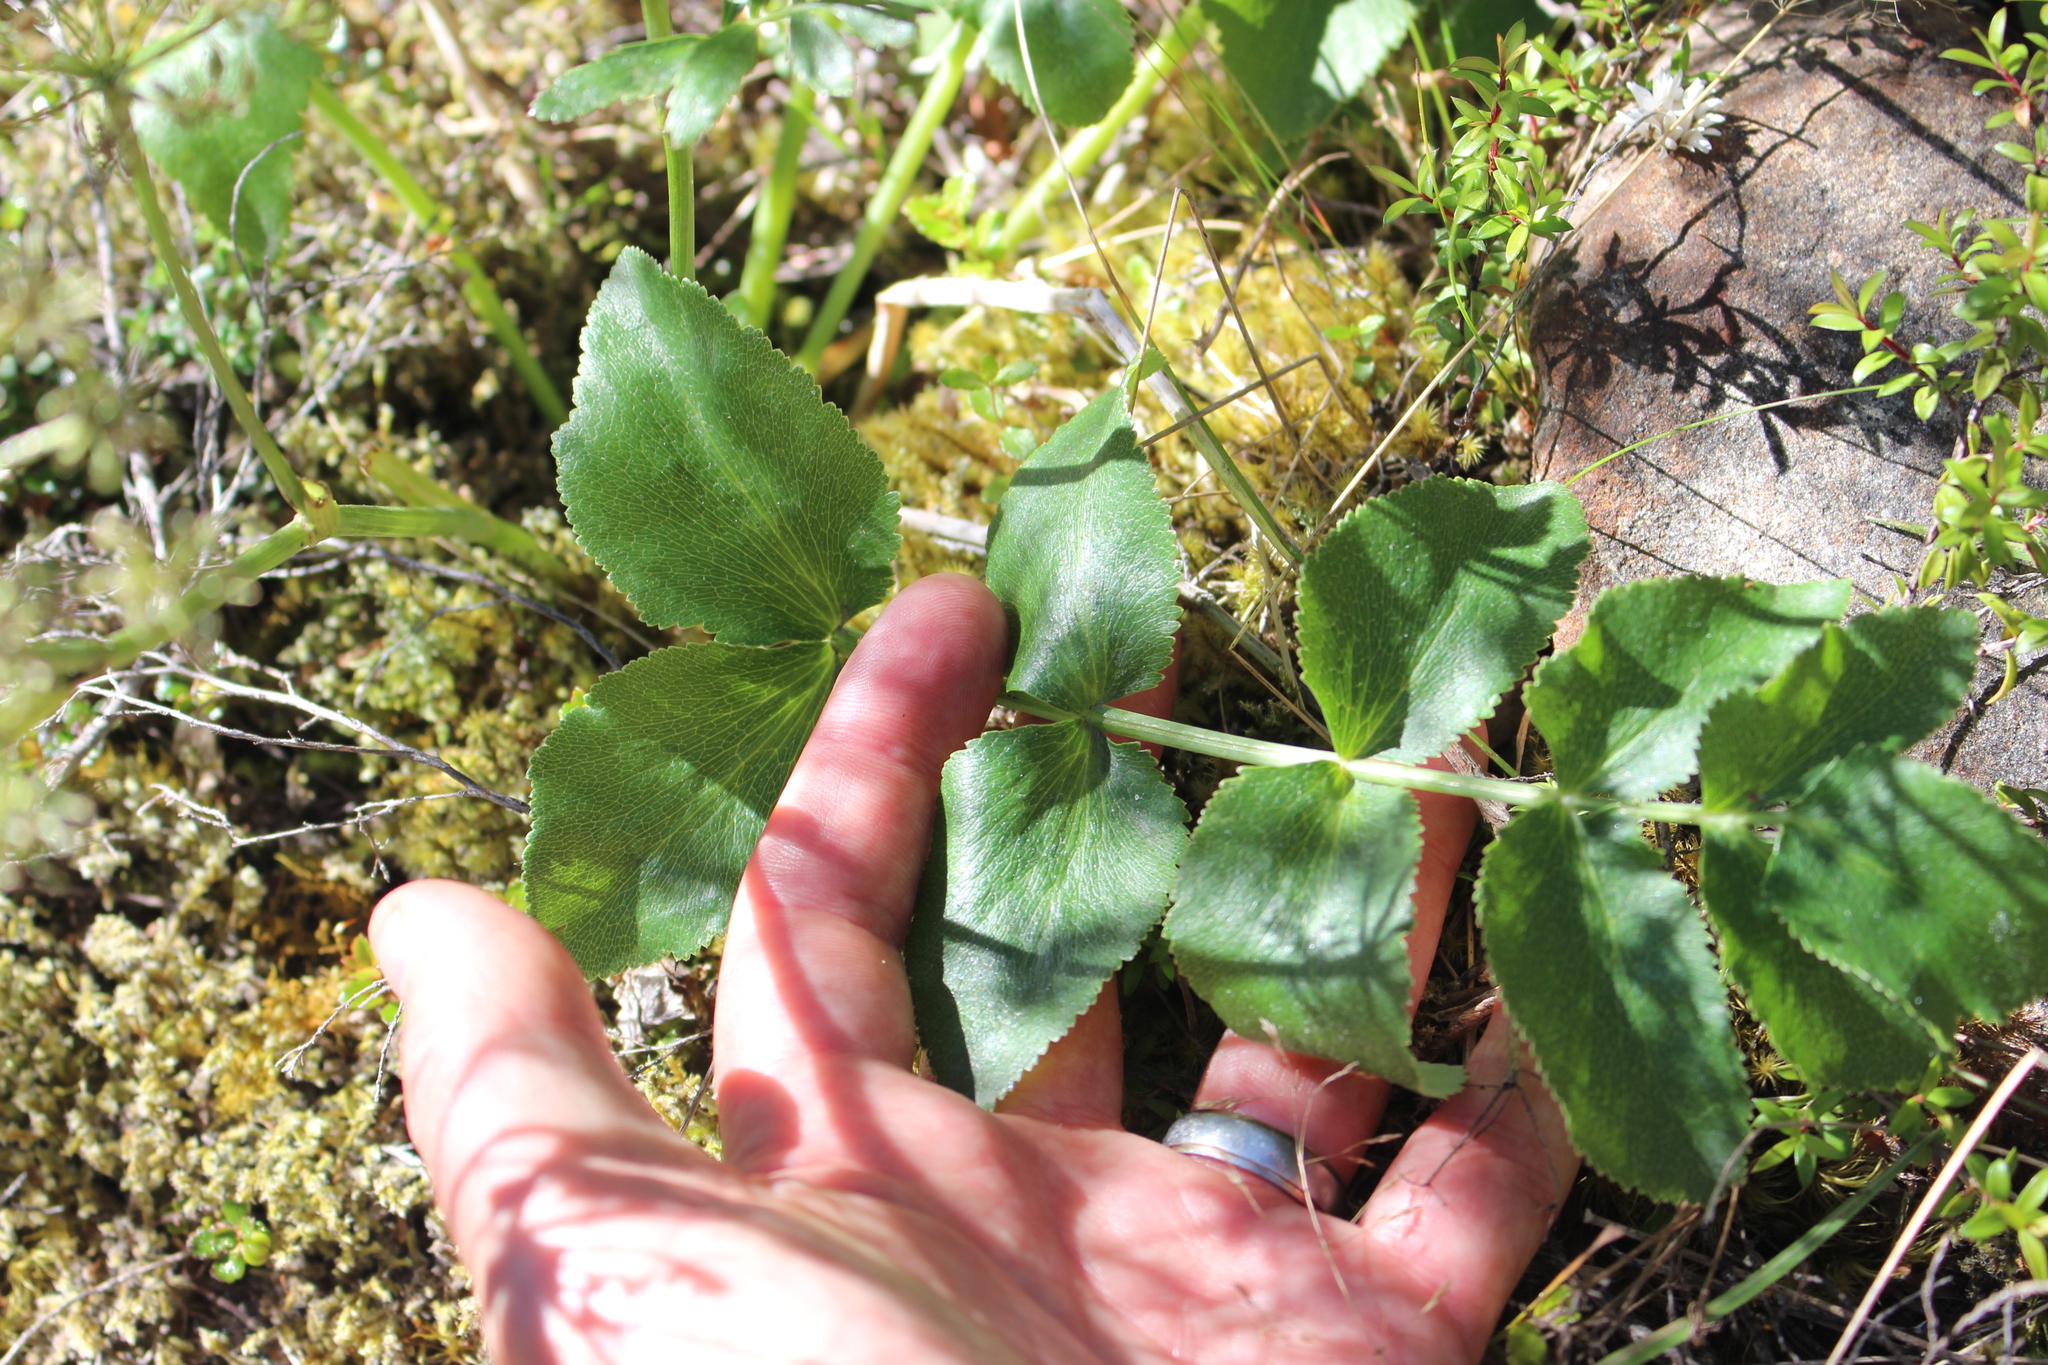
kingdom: Plantae
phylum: Tracheophyta
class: Magnoliopsida
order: Apiales
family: Apiaceae
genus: Gingidia
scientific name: Gingidia montana
